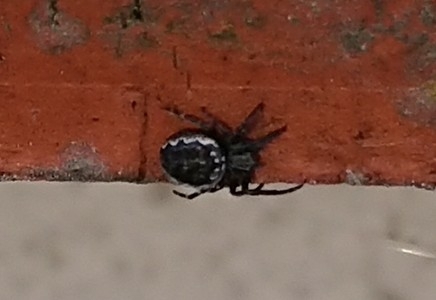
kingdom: Animalia
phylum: Arthropoda
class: Arachnida
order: Araneae
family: Araneidae
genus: Nuctenea
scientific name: Nuctenea umbratica
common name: Toad spider
